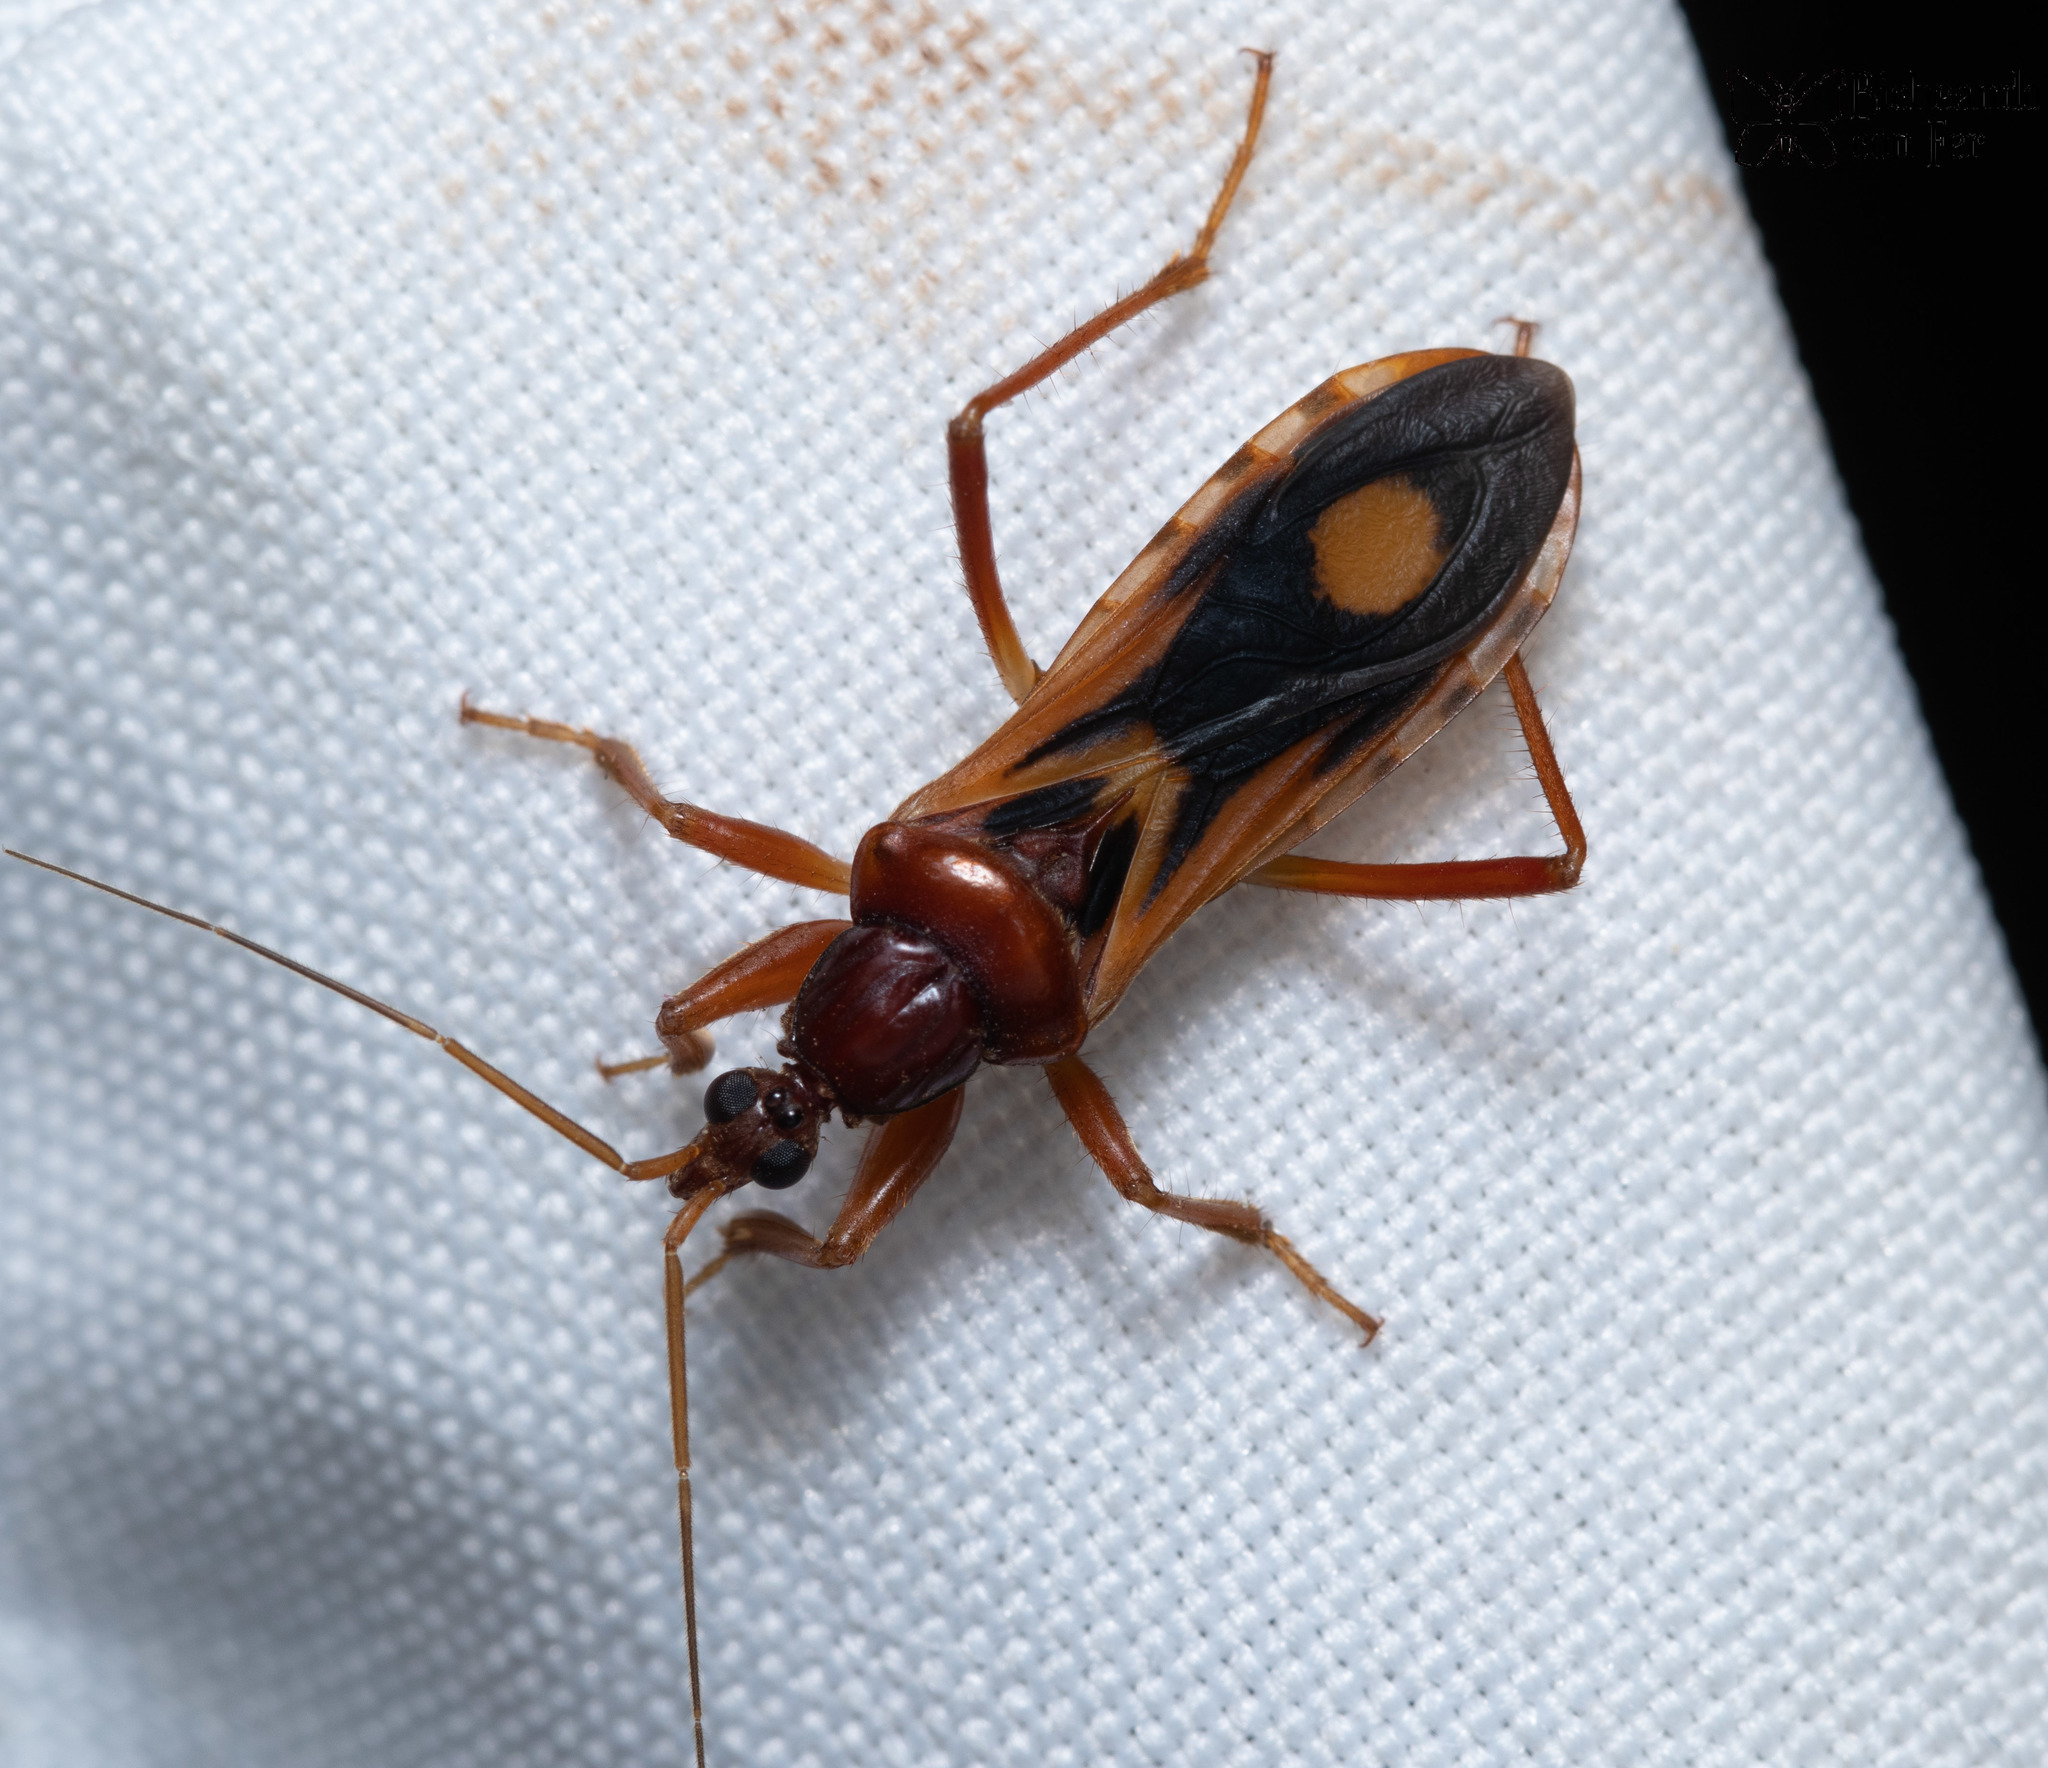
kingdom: Animalia
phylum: Arthropoda
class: Insecta
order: Hemiptera
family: Reduviidae
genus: Rasahus
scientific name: Rasahus thoracicus
